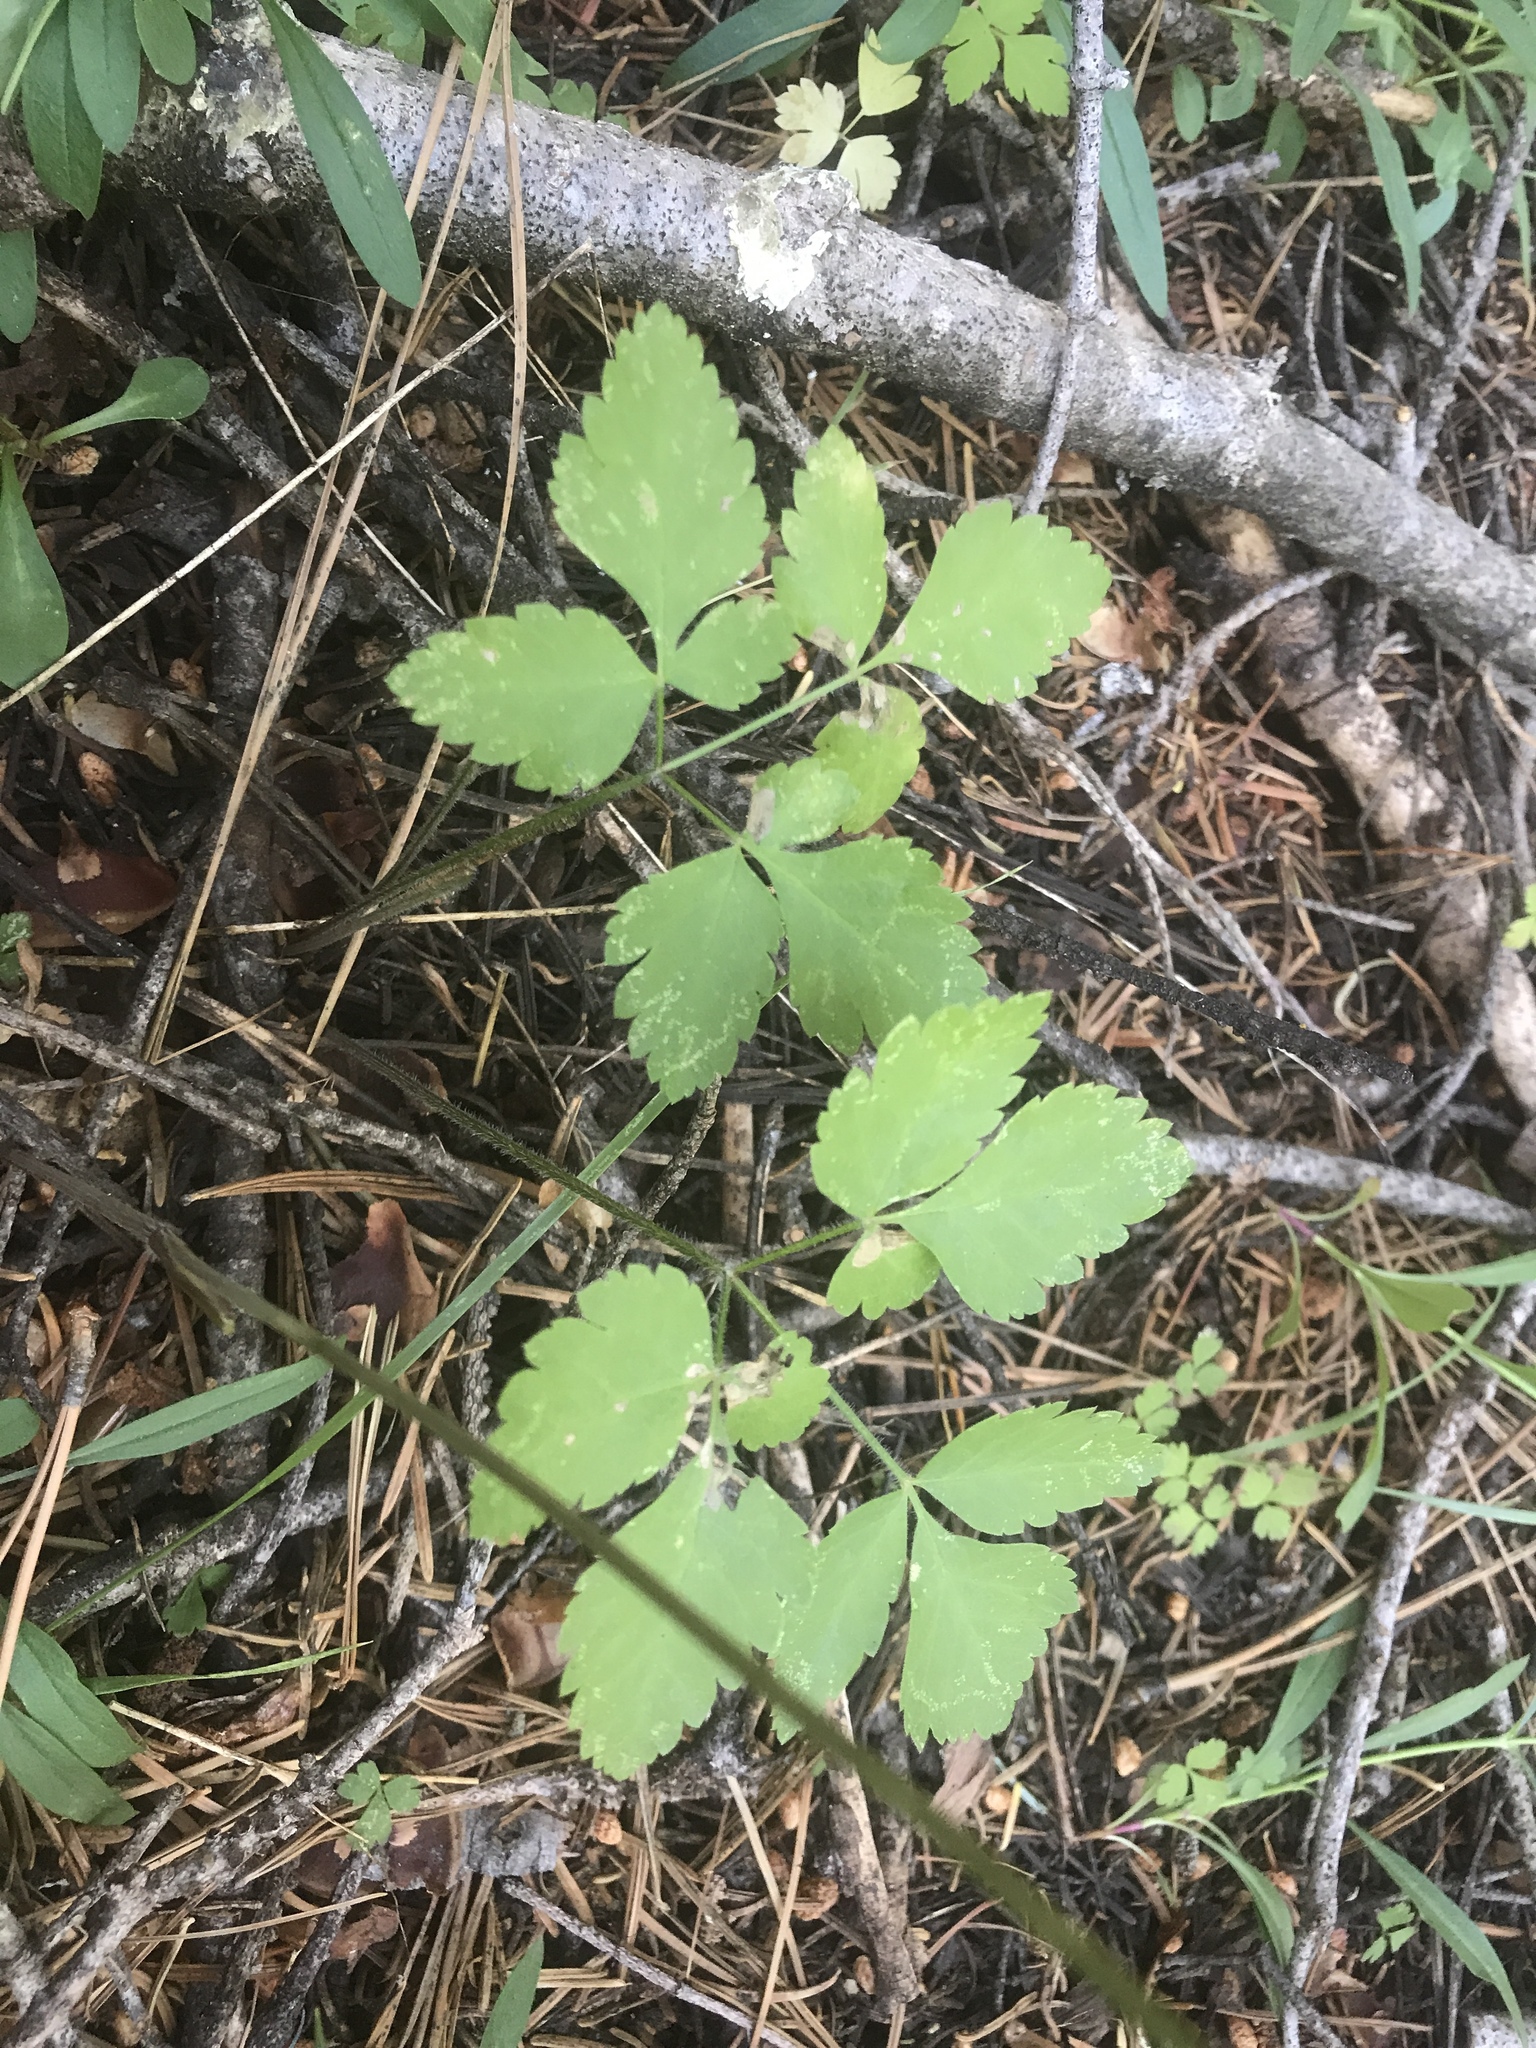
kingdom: Plantae
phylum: Tracheophyta
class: Magnoliopsida
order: Apiales
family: Apiaceae
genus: Osmorhiza
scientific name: Osmorhiza berteroi
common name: Mountain sweet cicely
